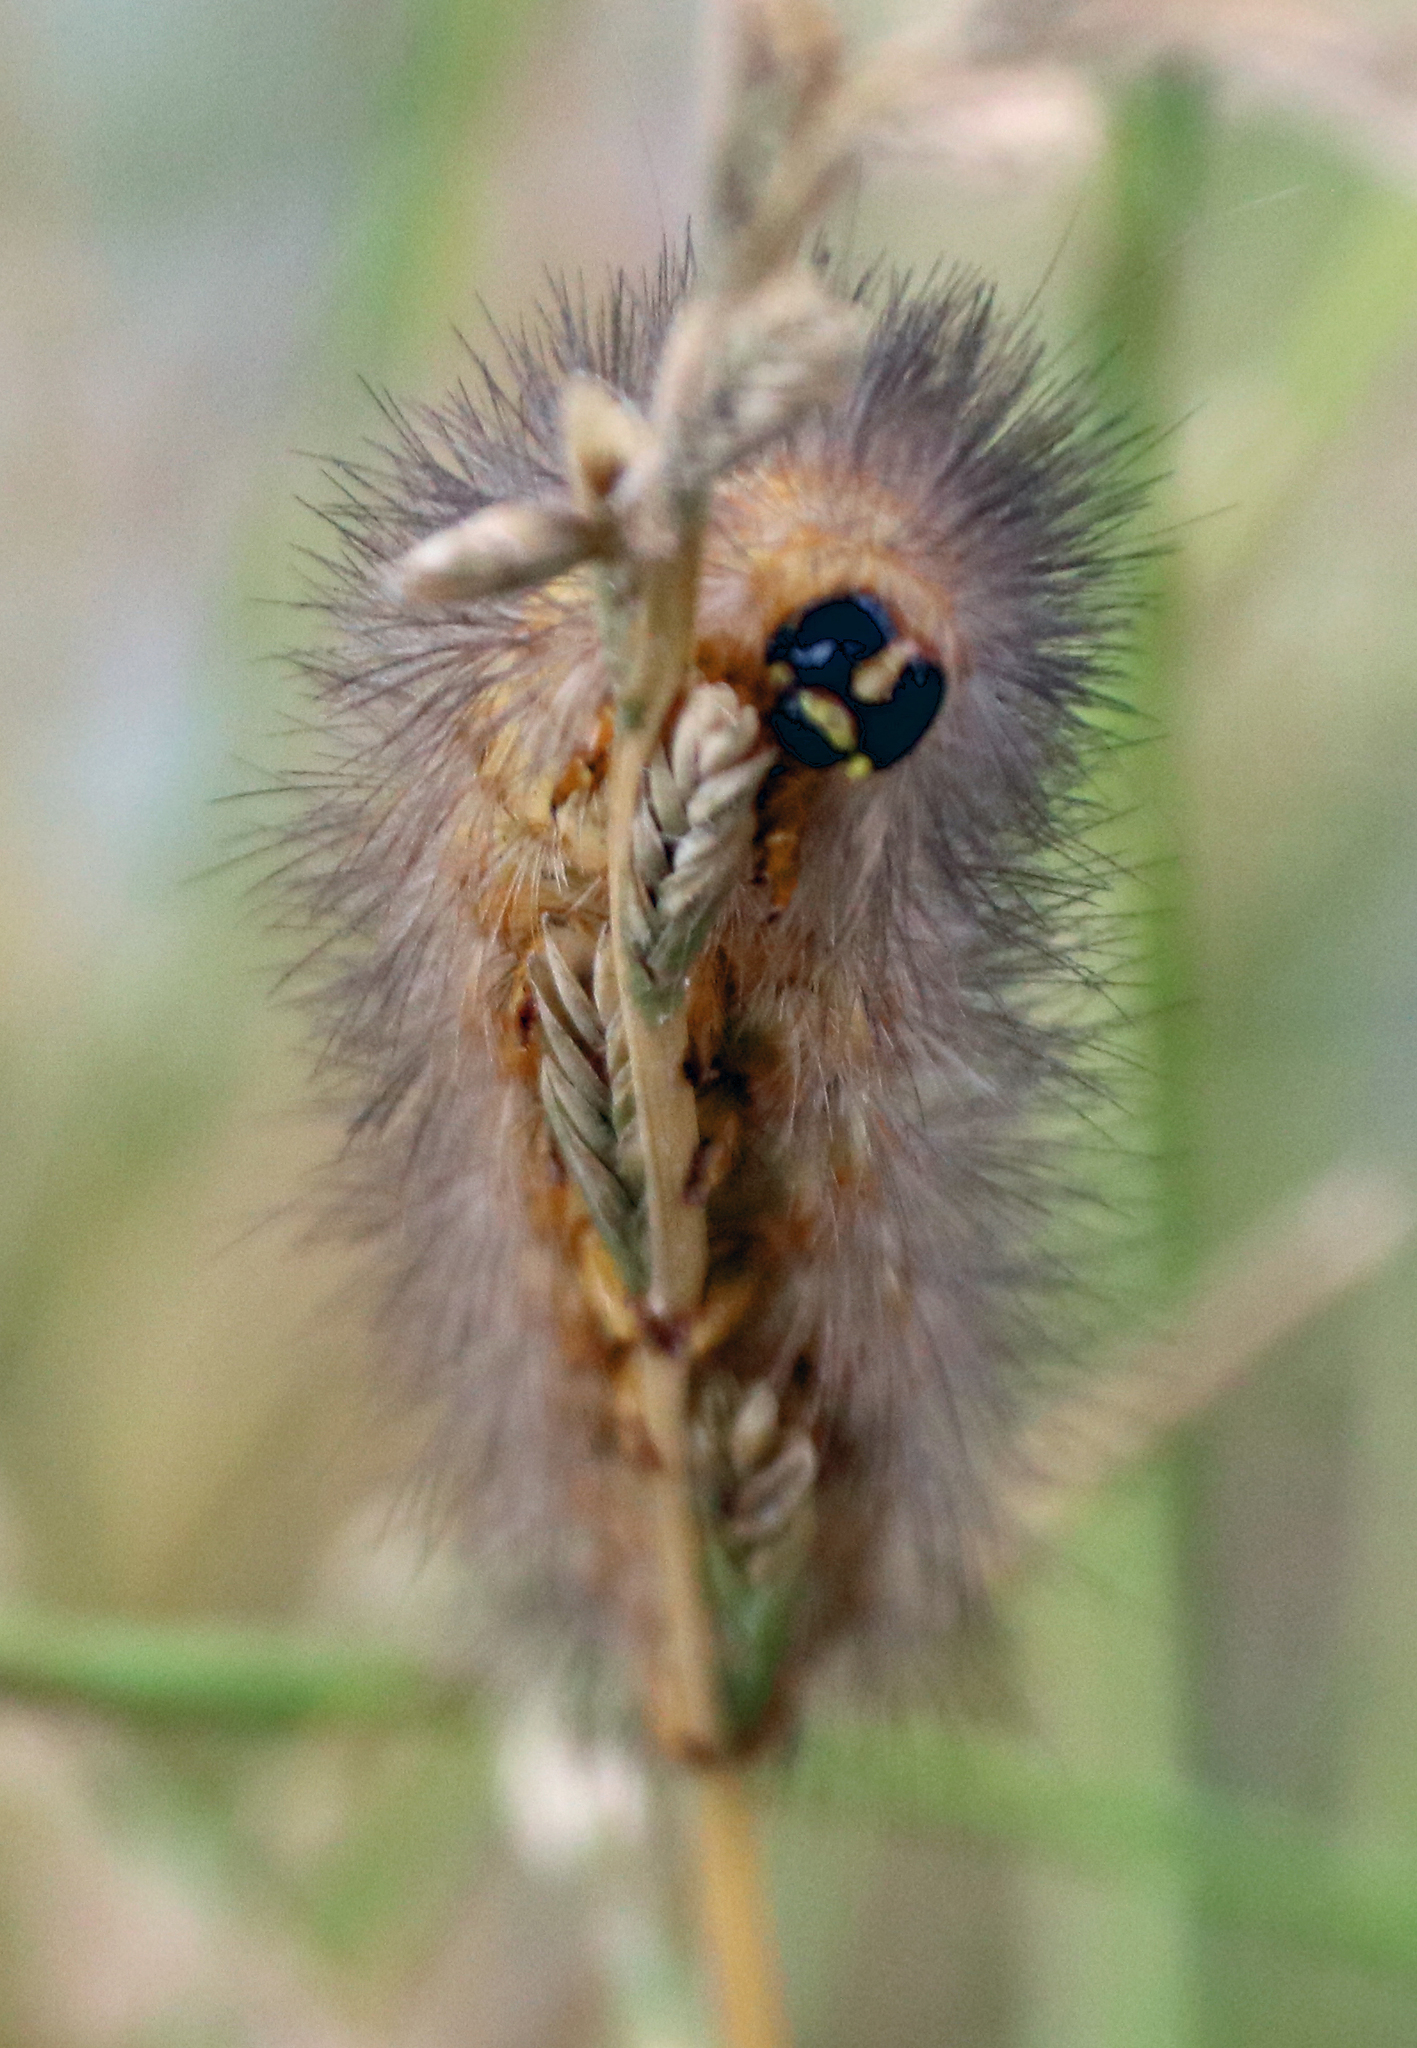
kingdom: Animalia
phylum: Arthropoda
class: Insecta
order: Lepidoptera
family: Erebidae
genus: Estigmene
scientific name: Estigmene acrea
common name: Salt marsh moth
